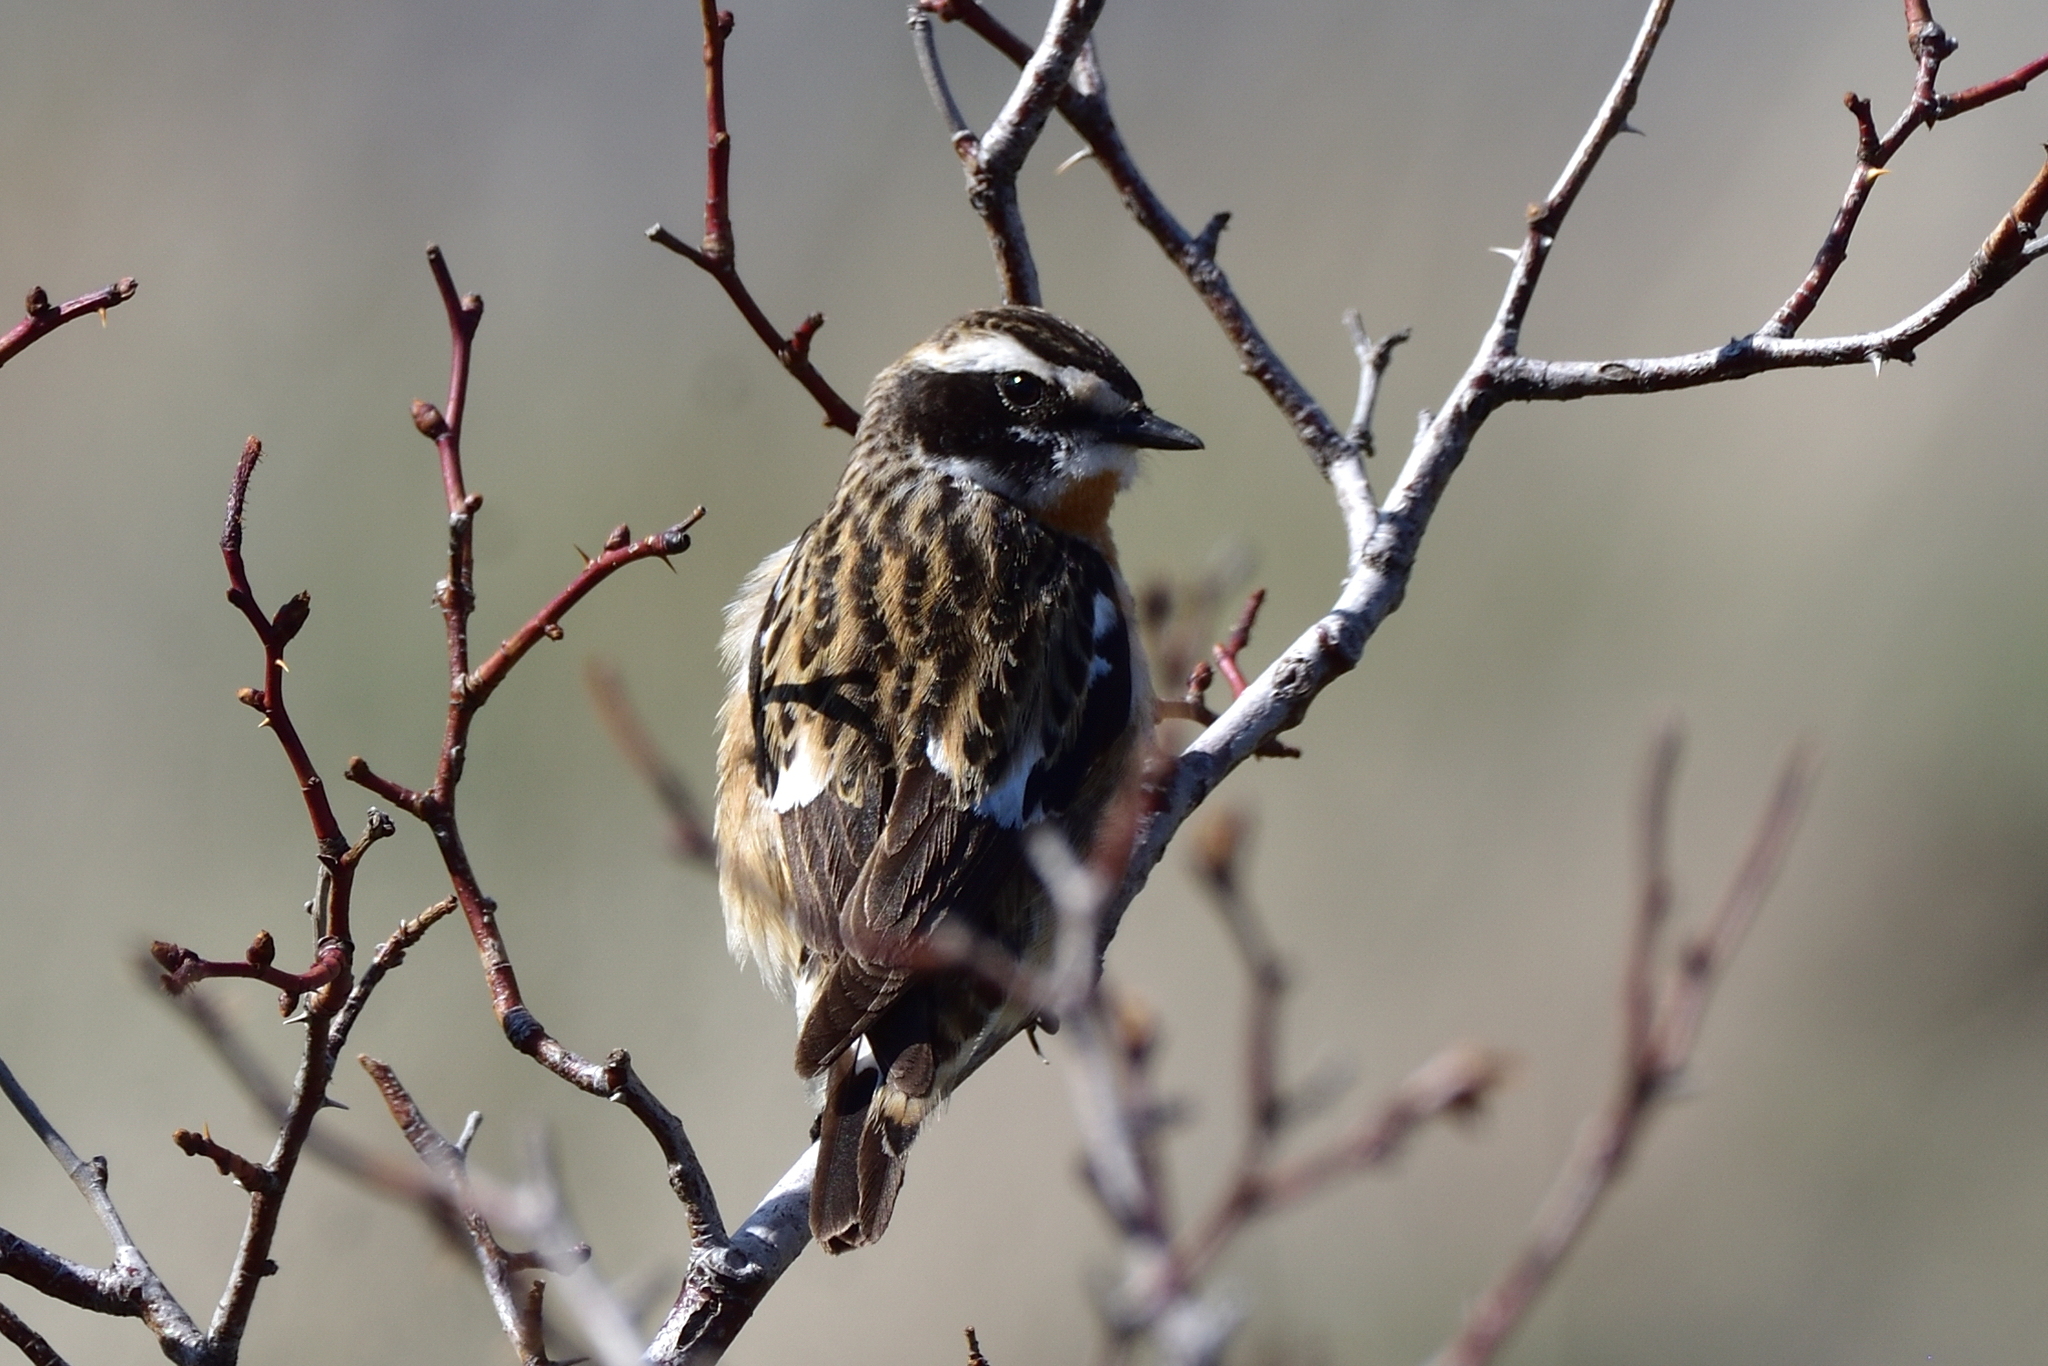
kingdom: Animalia
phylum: Chordata
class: Aves
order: Passeriformes
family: Muscicapidae
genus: Saxicola
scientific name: Saxicola rubetra
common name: Whinchat
